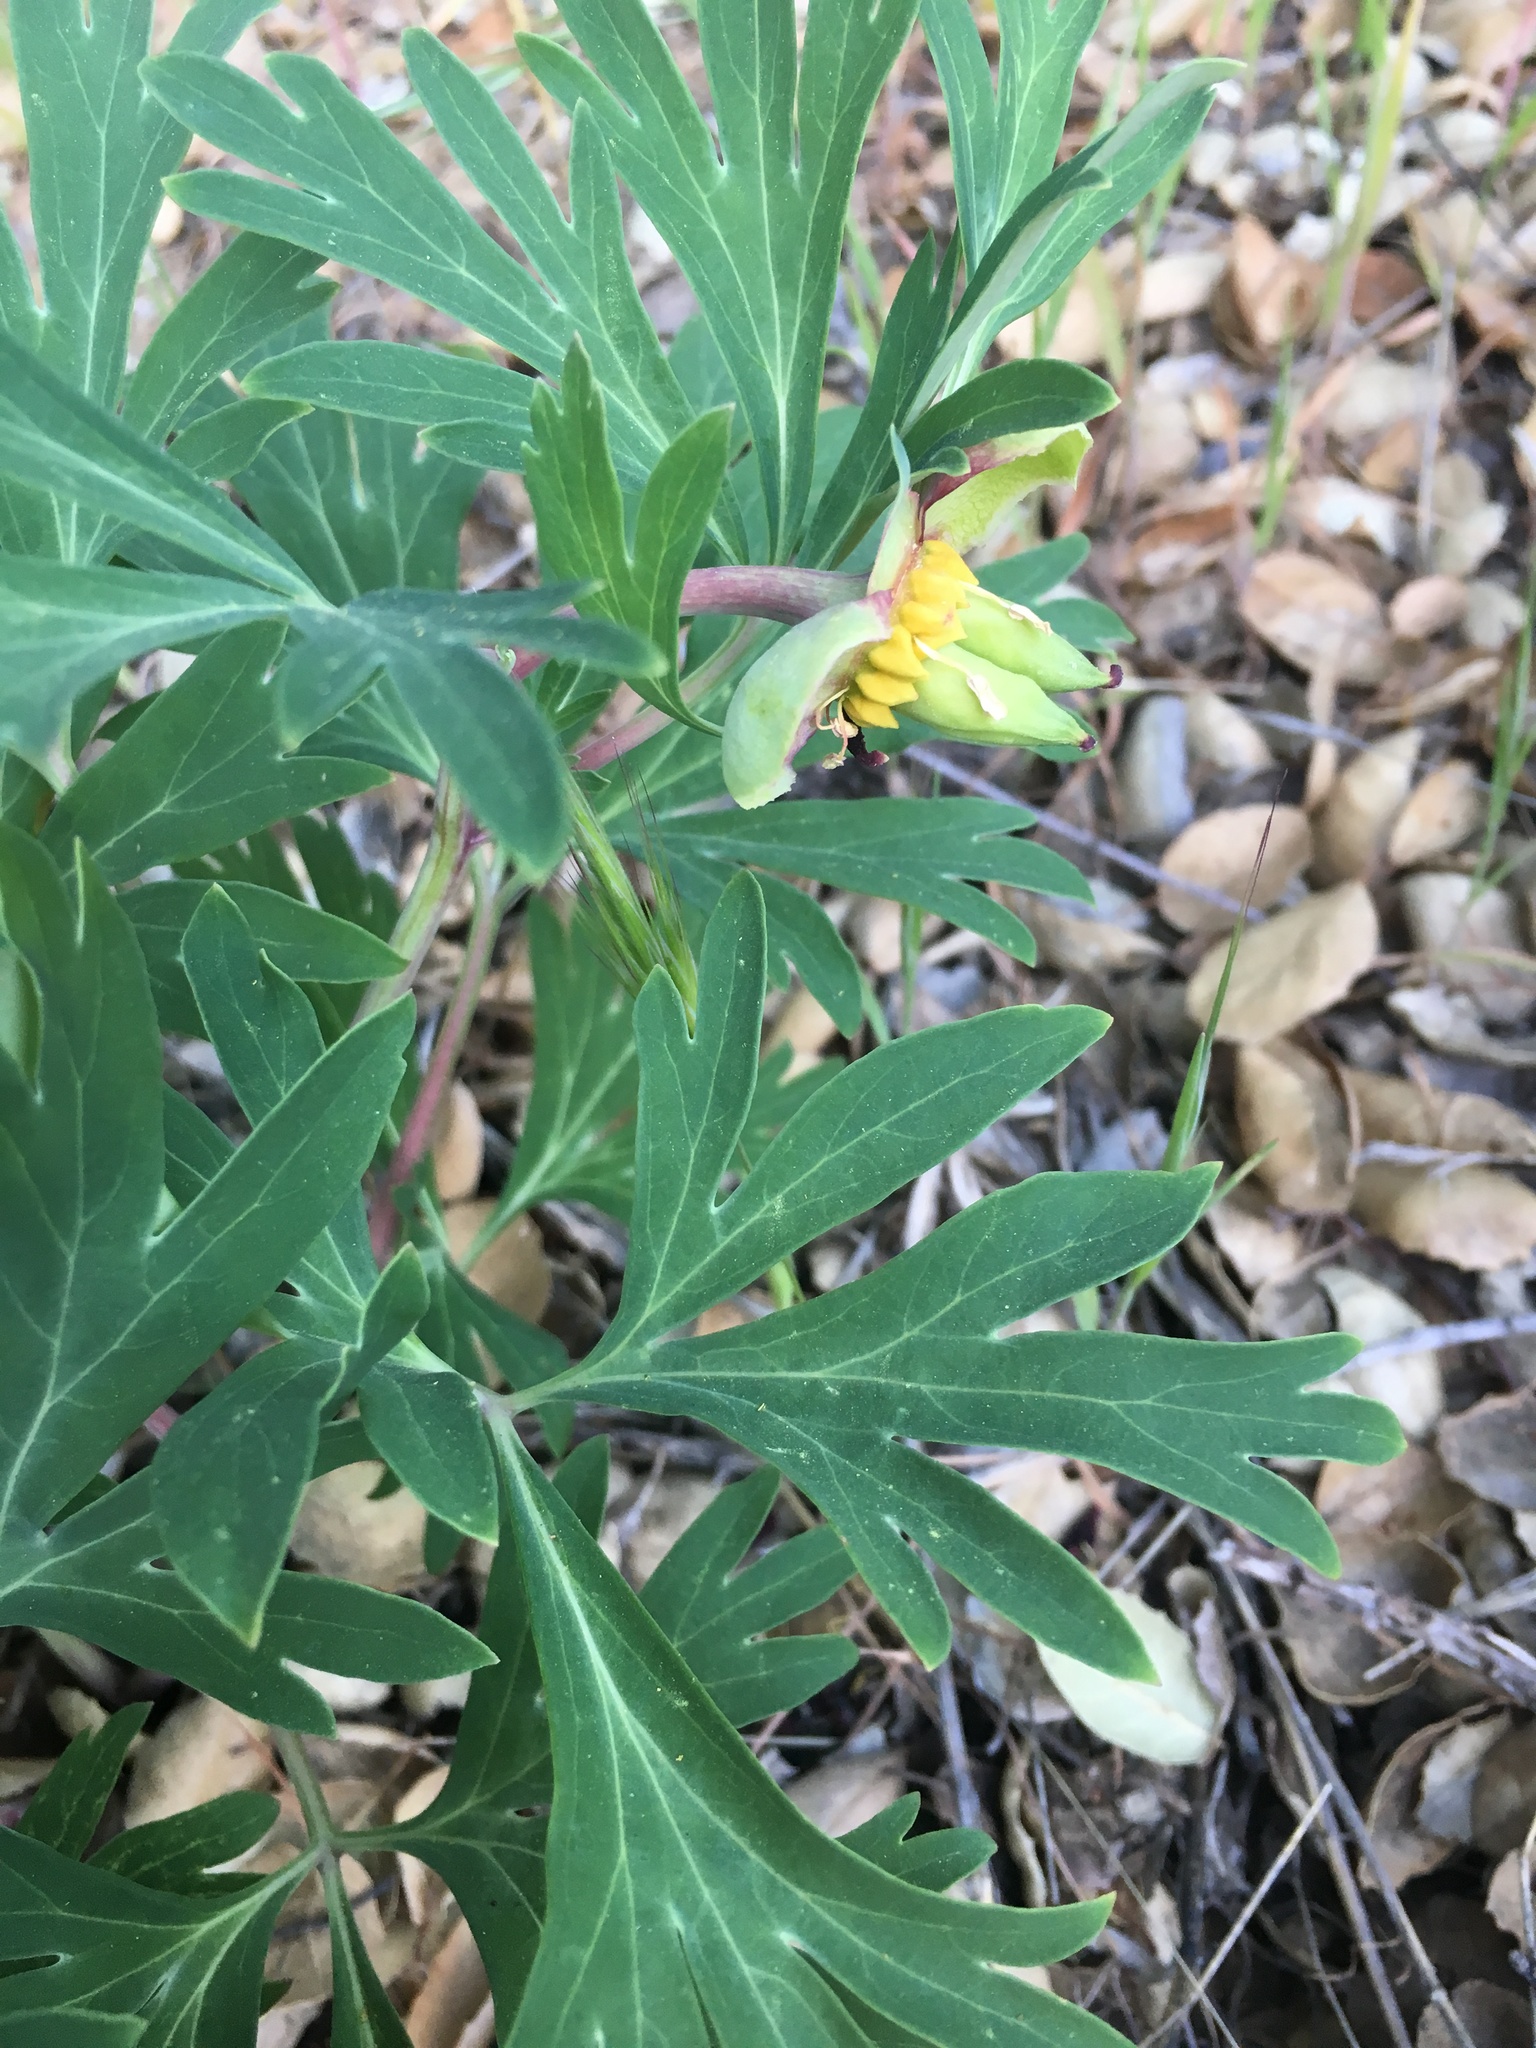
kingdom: Plantae
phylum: Tracheophyta
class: Magnoliopsida
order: Saxifragales
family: Paeoniaceae
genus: Paeonia
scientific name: Paeonia californica
